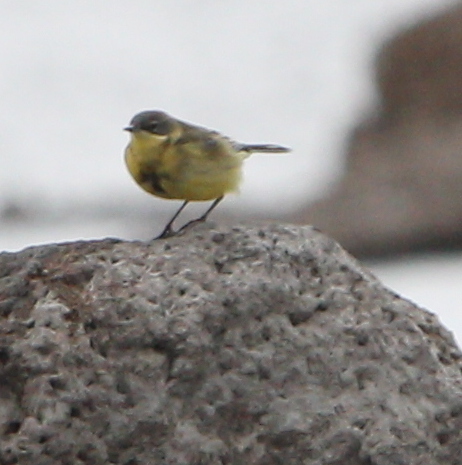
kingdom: Animalia
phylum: Chordata
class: Aves
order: Passeriformes
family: Motacillidae
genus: Motacilla
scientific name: Motacilla flava
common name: Western yellow wagtail
